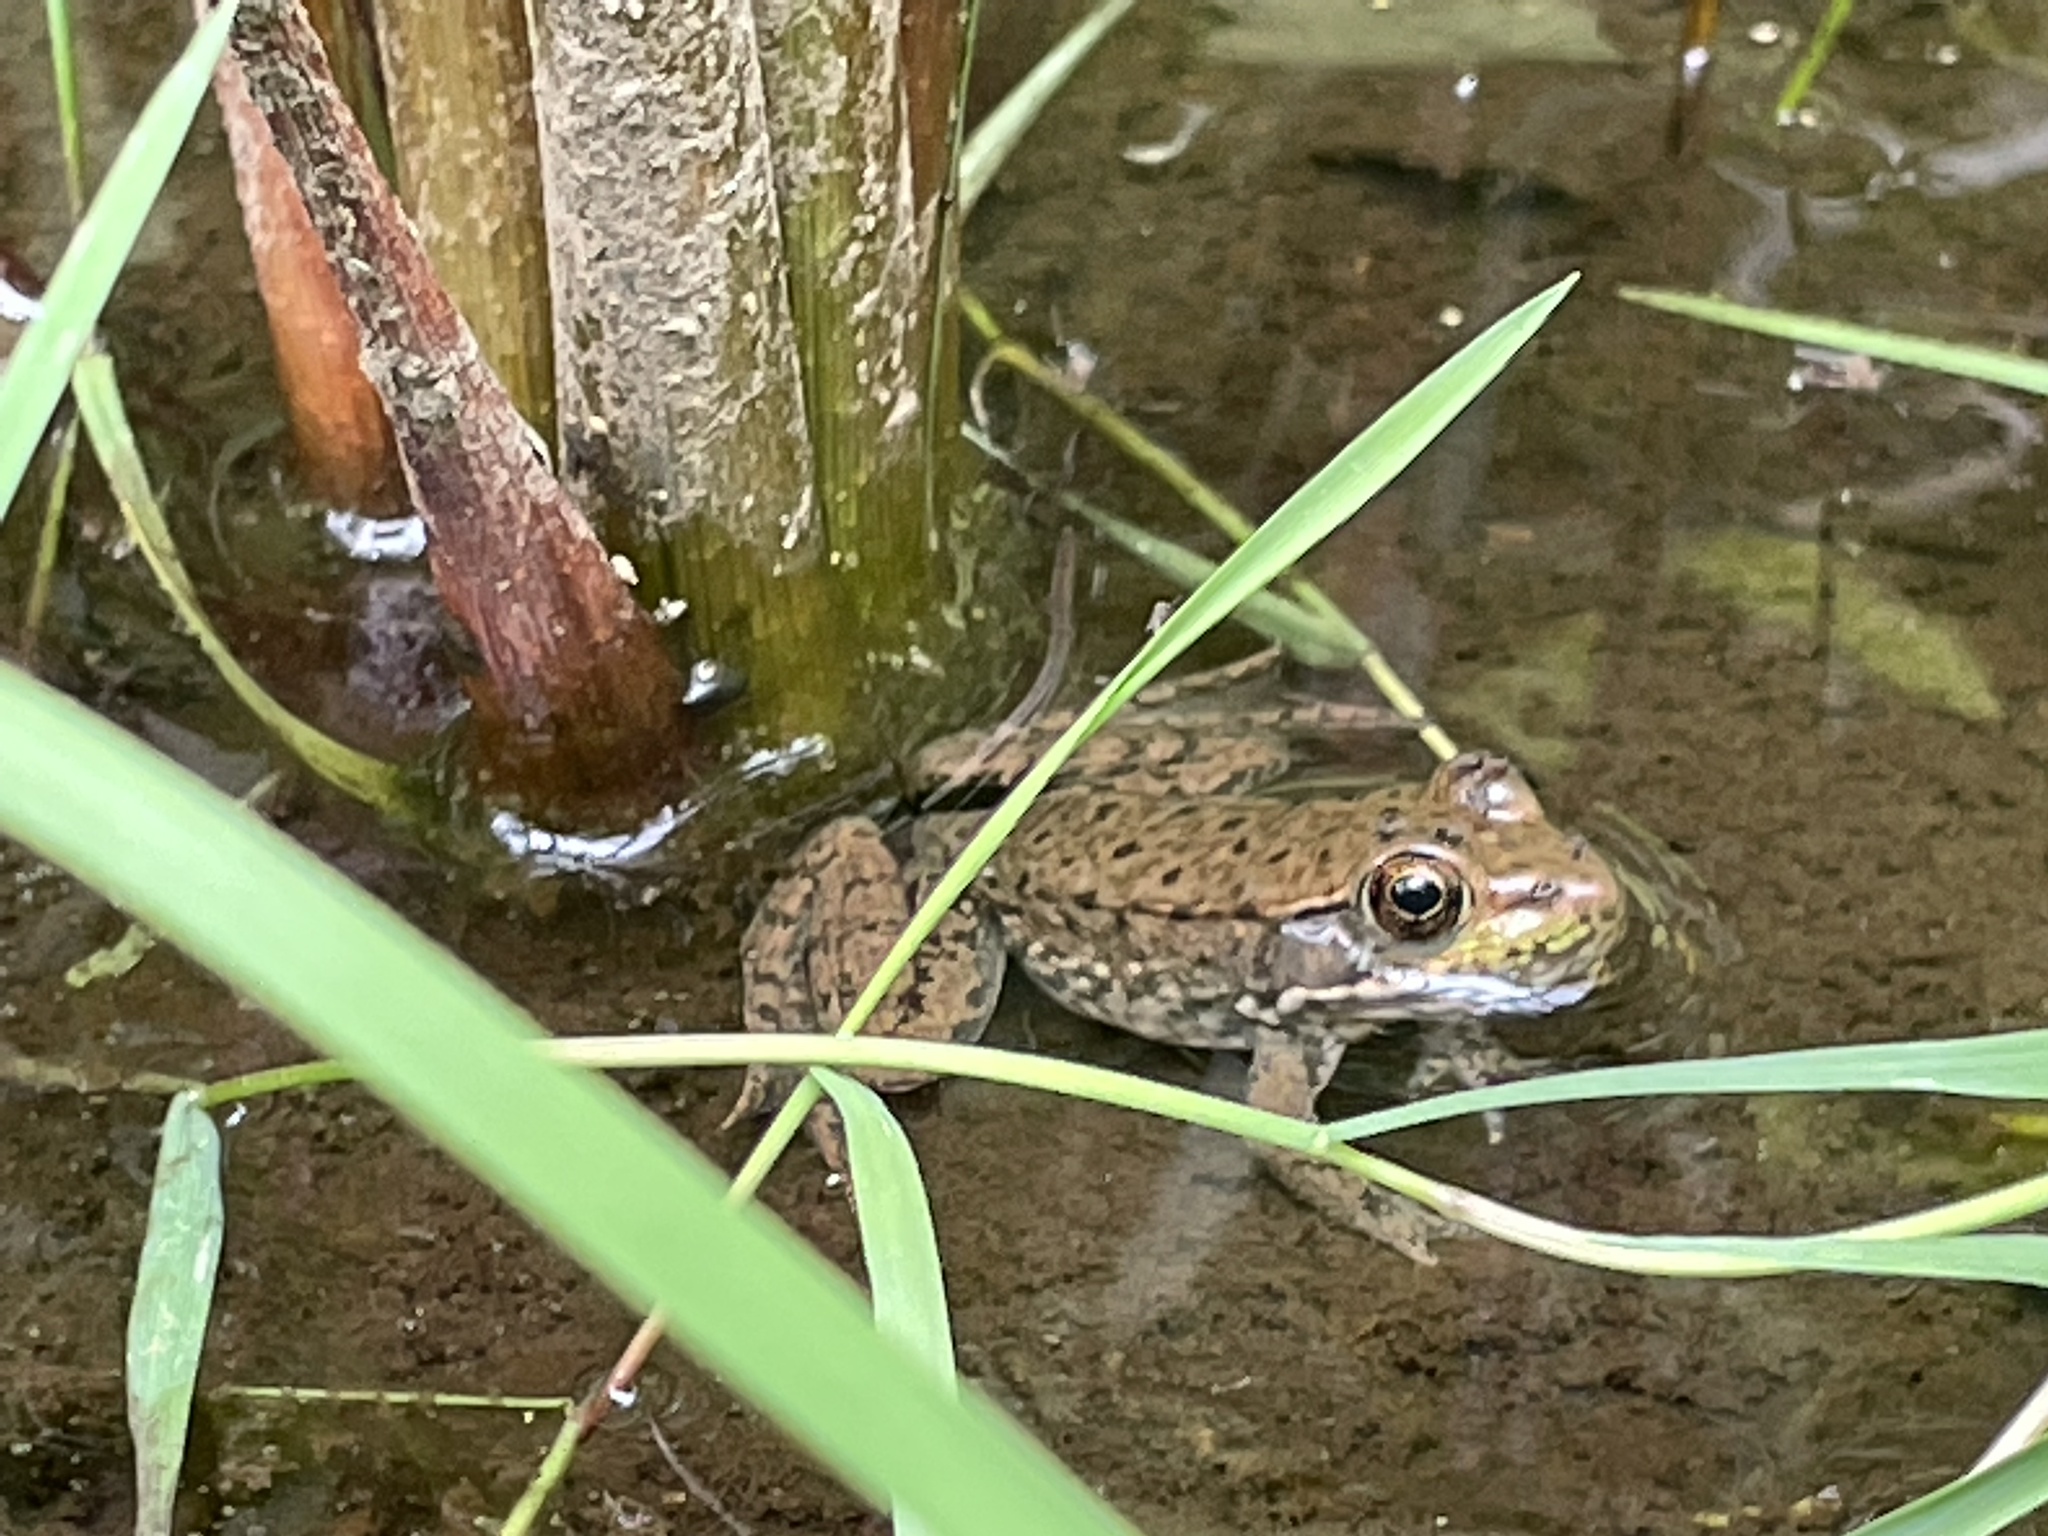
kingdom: Animalia
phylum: Chordata
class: Amphibia
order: Anura
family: Ranidae
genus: Lithobates
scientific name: Lithobates clamitans
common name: Green frog
